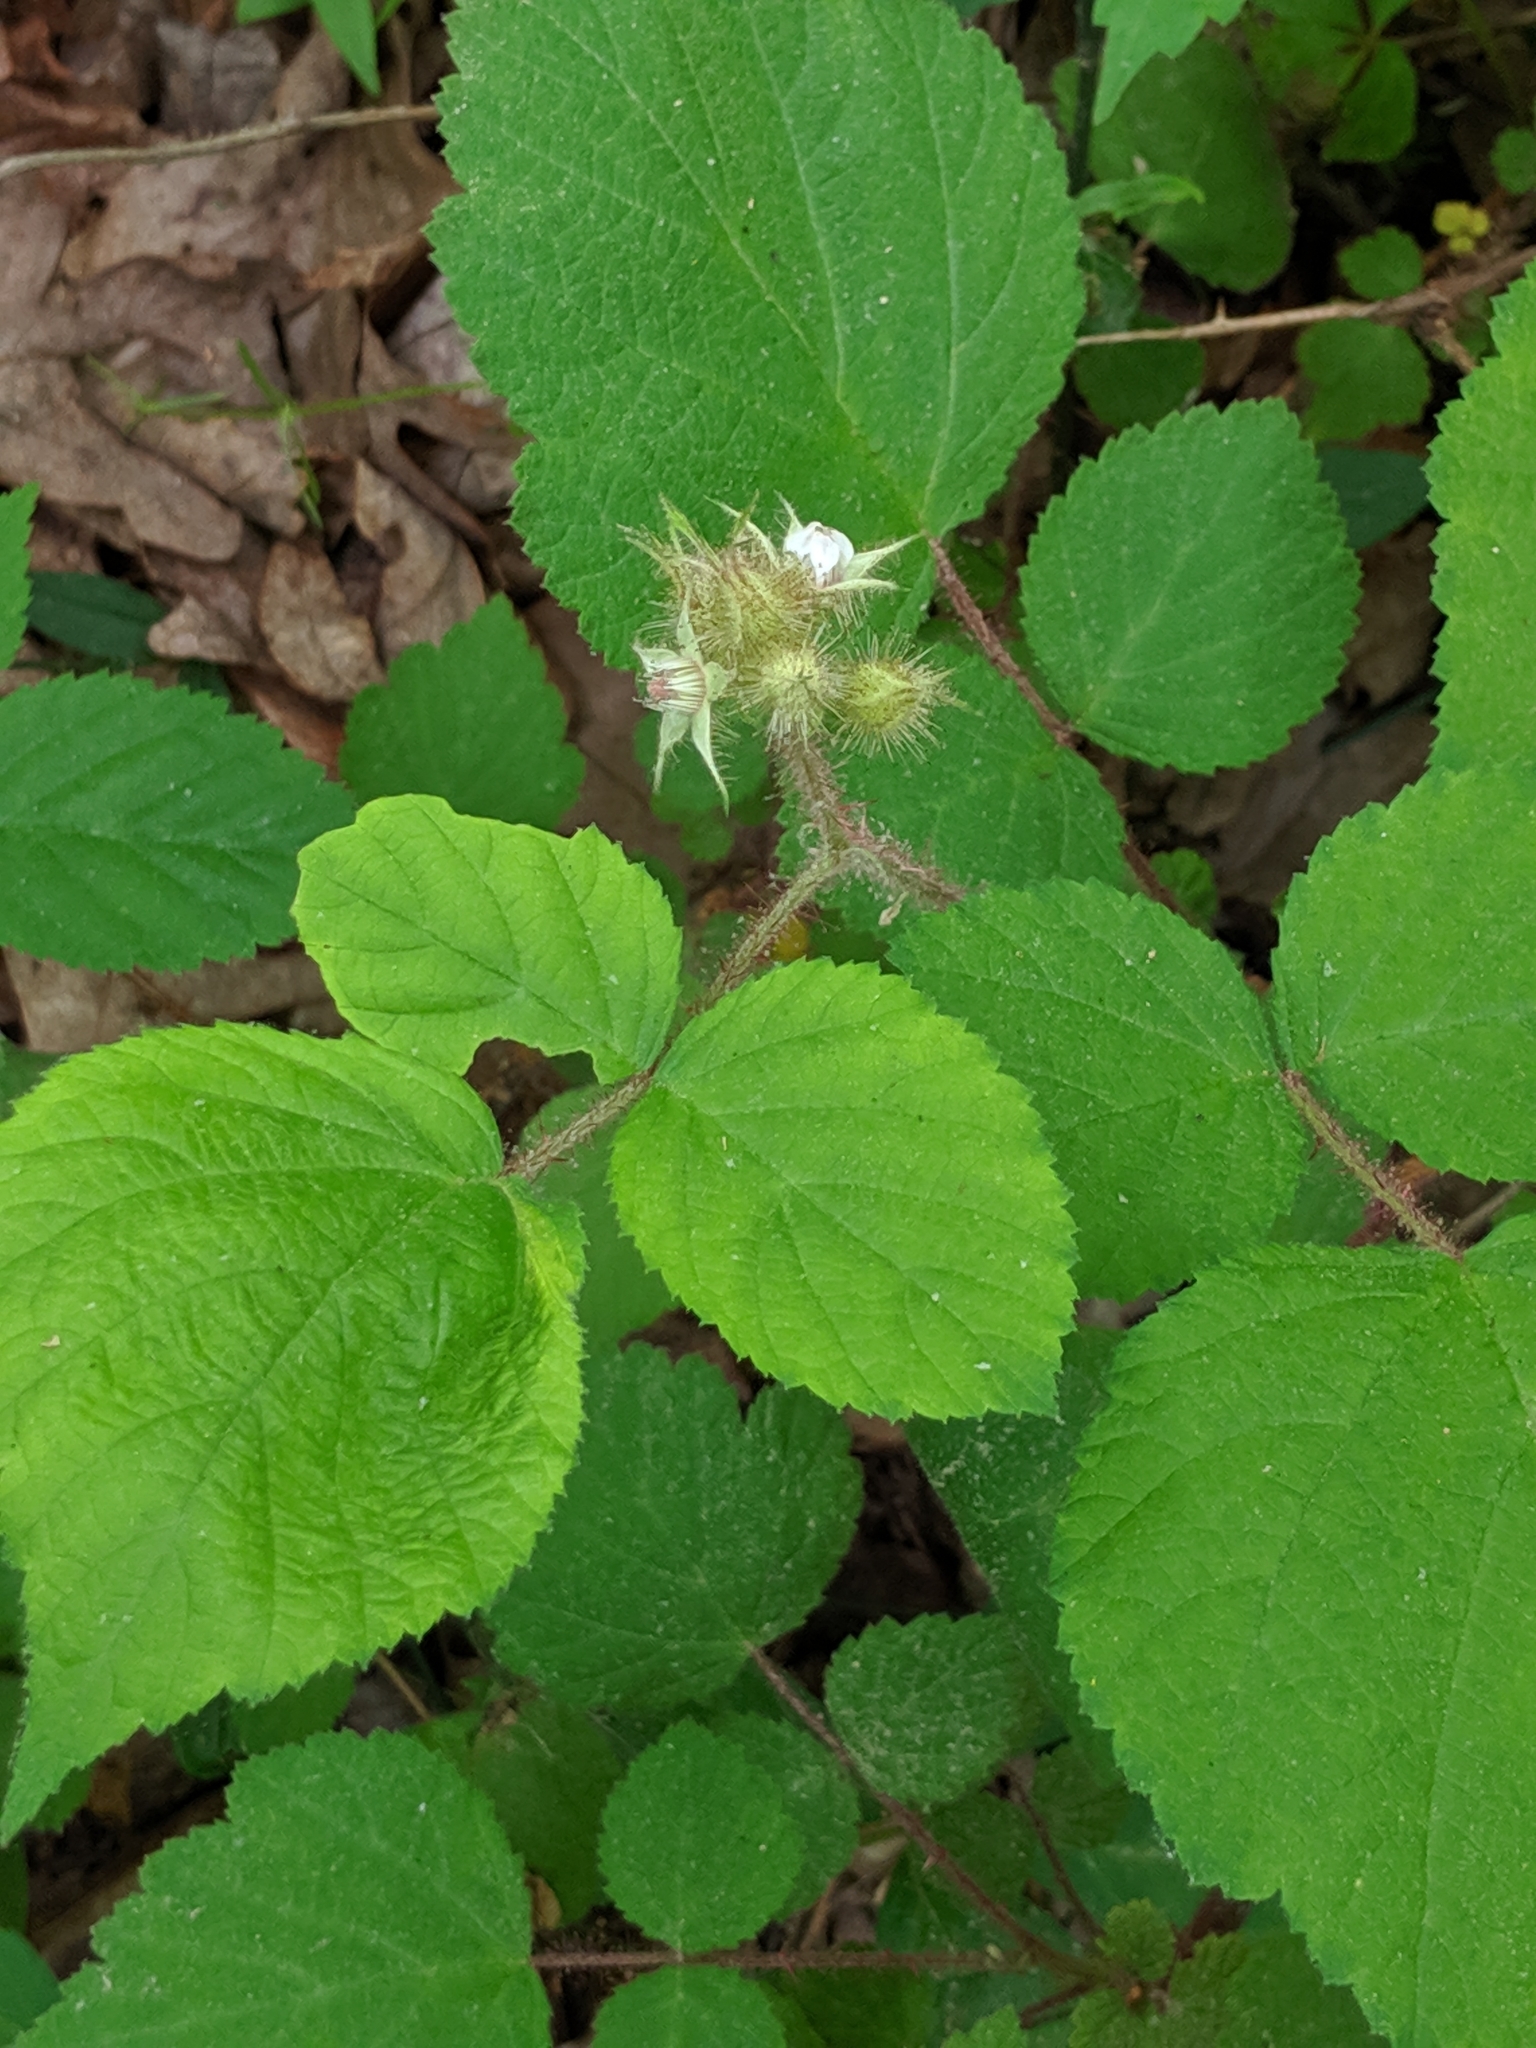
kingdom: Plantae
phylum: Tracheophyta
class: Magnoliopsida
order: Rosales
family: Rosaceae
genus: Rubus
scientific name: Rubus phoenicolasius
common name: Japanese wineberry
